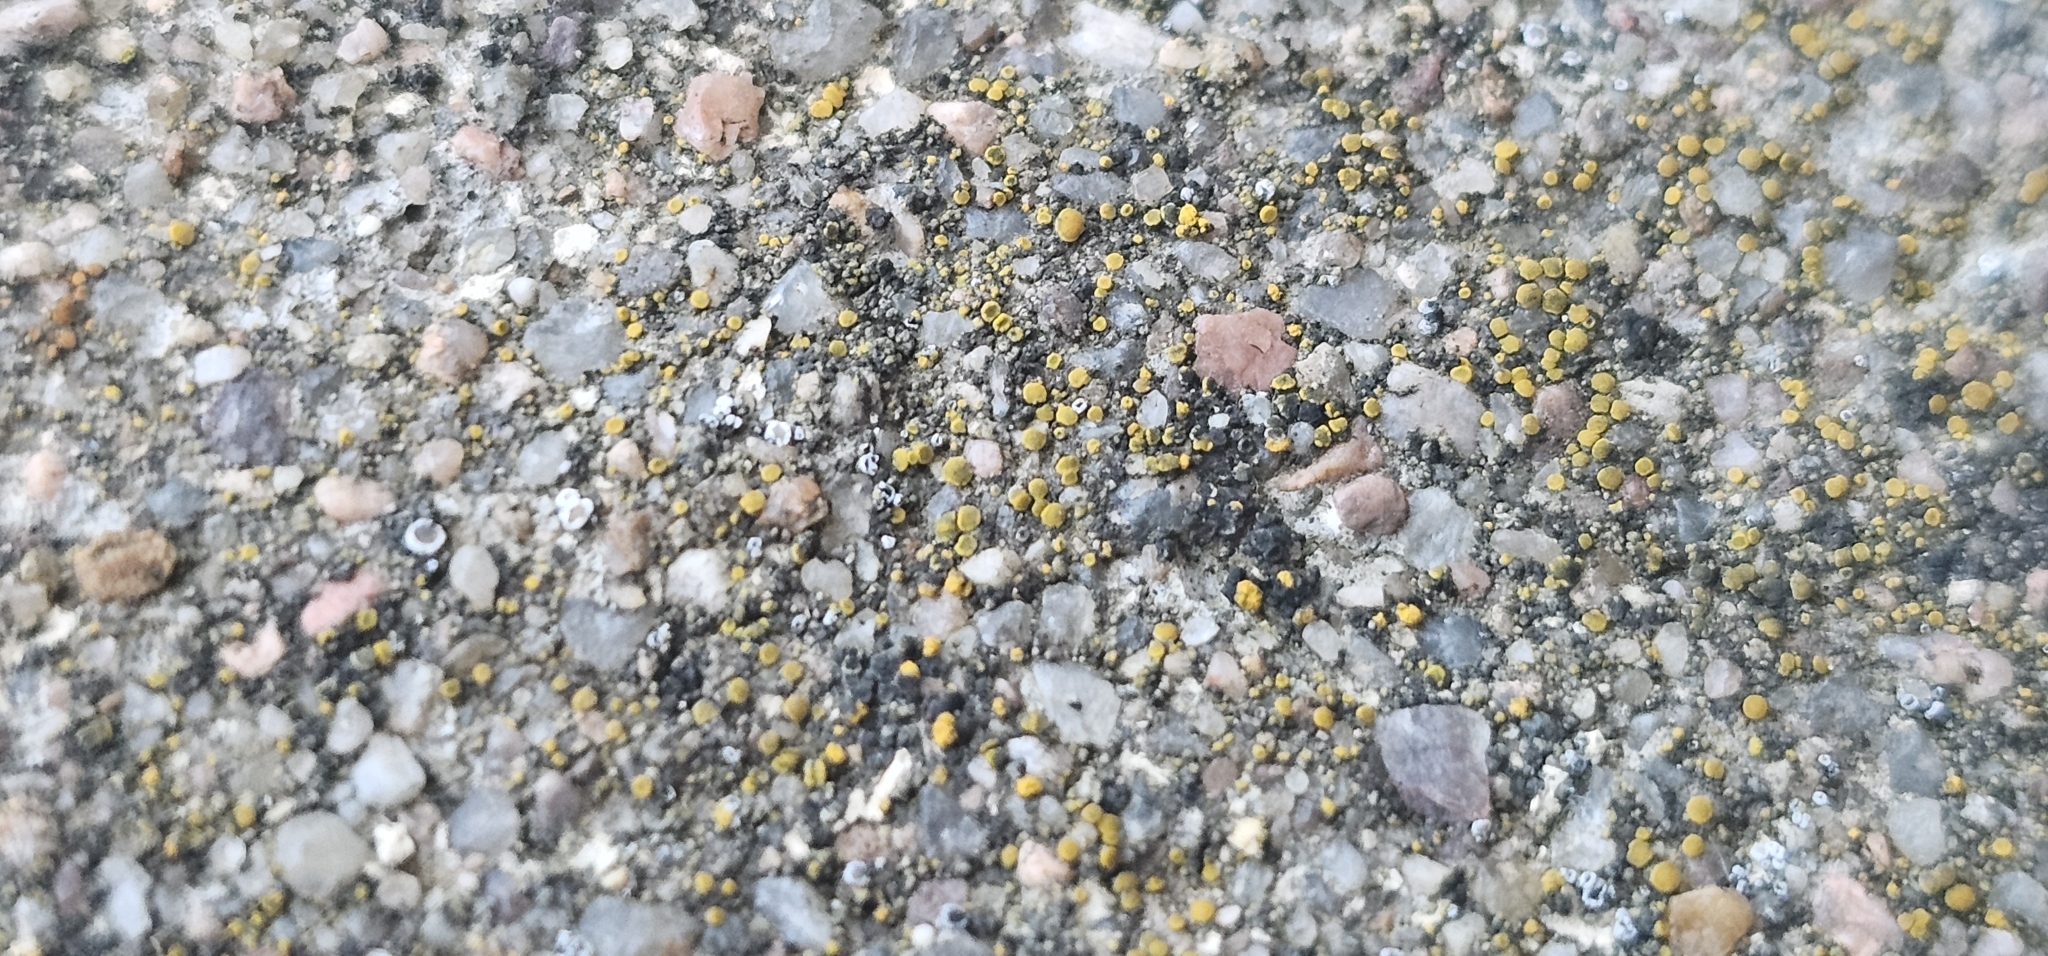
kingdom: Fungi
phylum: Ascomycota
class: Candelariomycetes
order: Candelariales
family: Candelariaceae
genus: Candelariella
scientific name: Candelariella aurella
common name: Hidden goldspeck lichen
